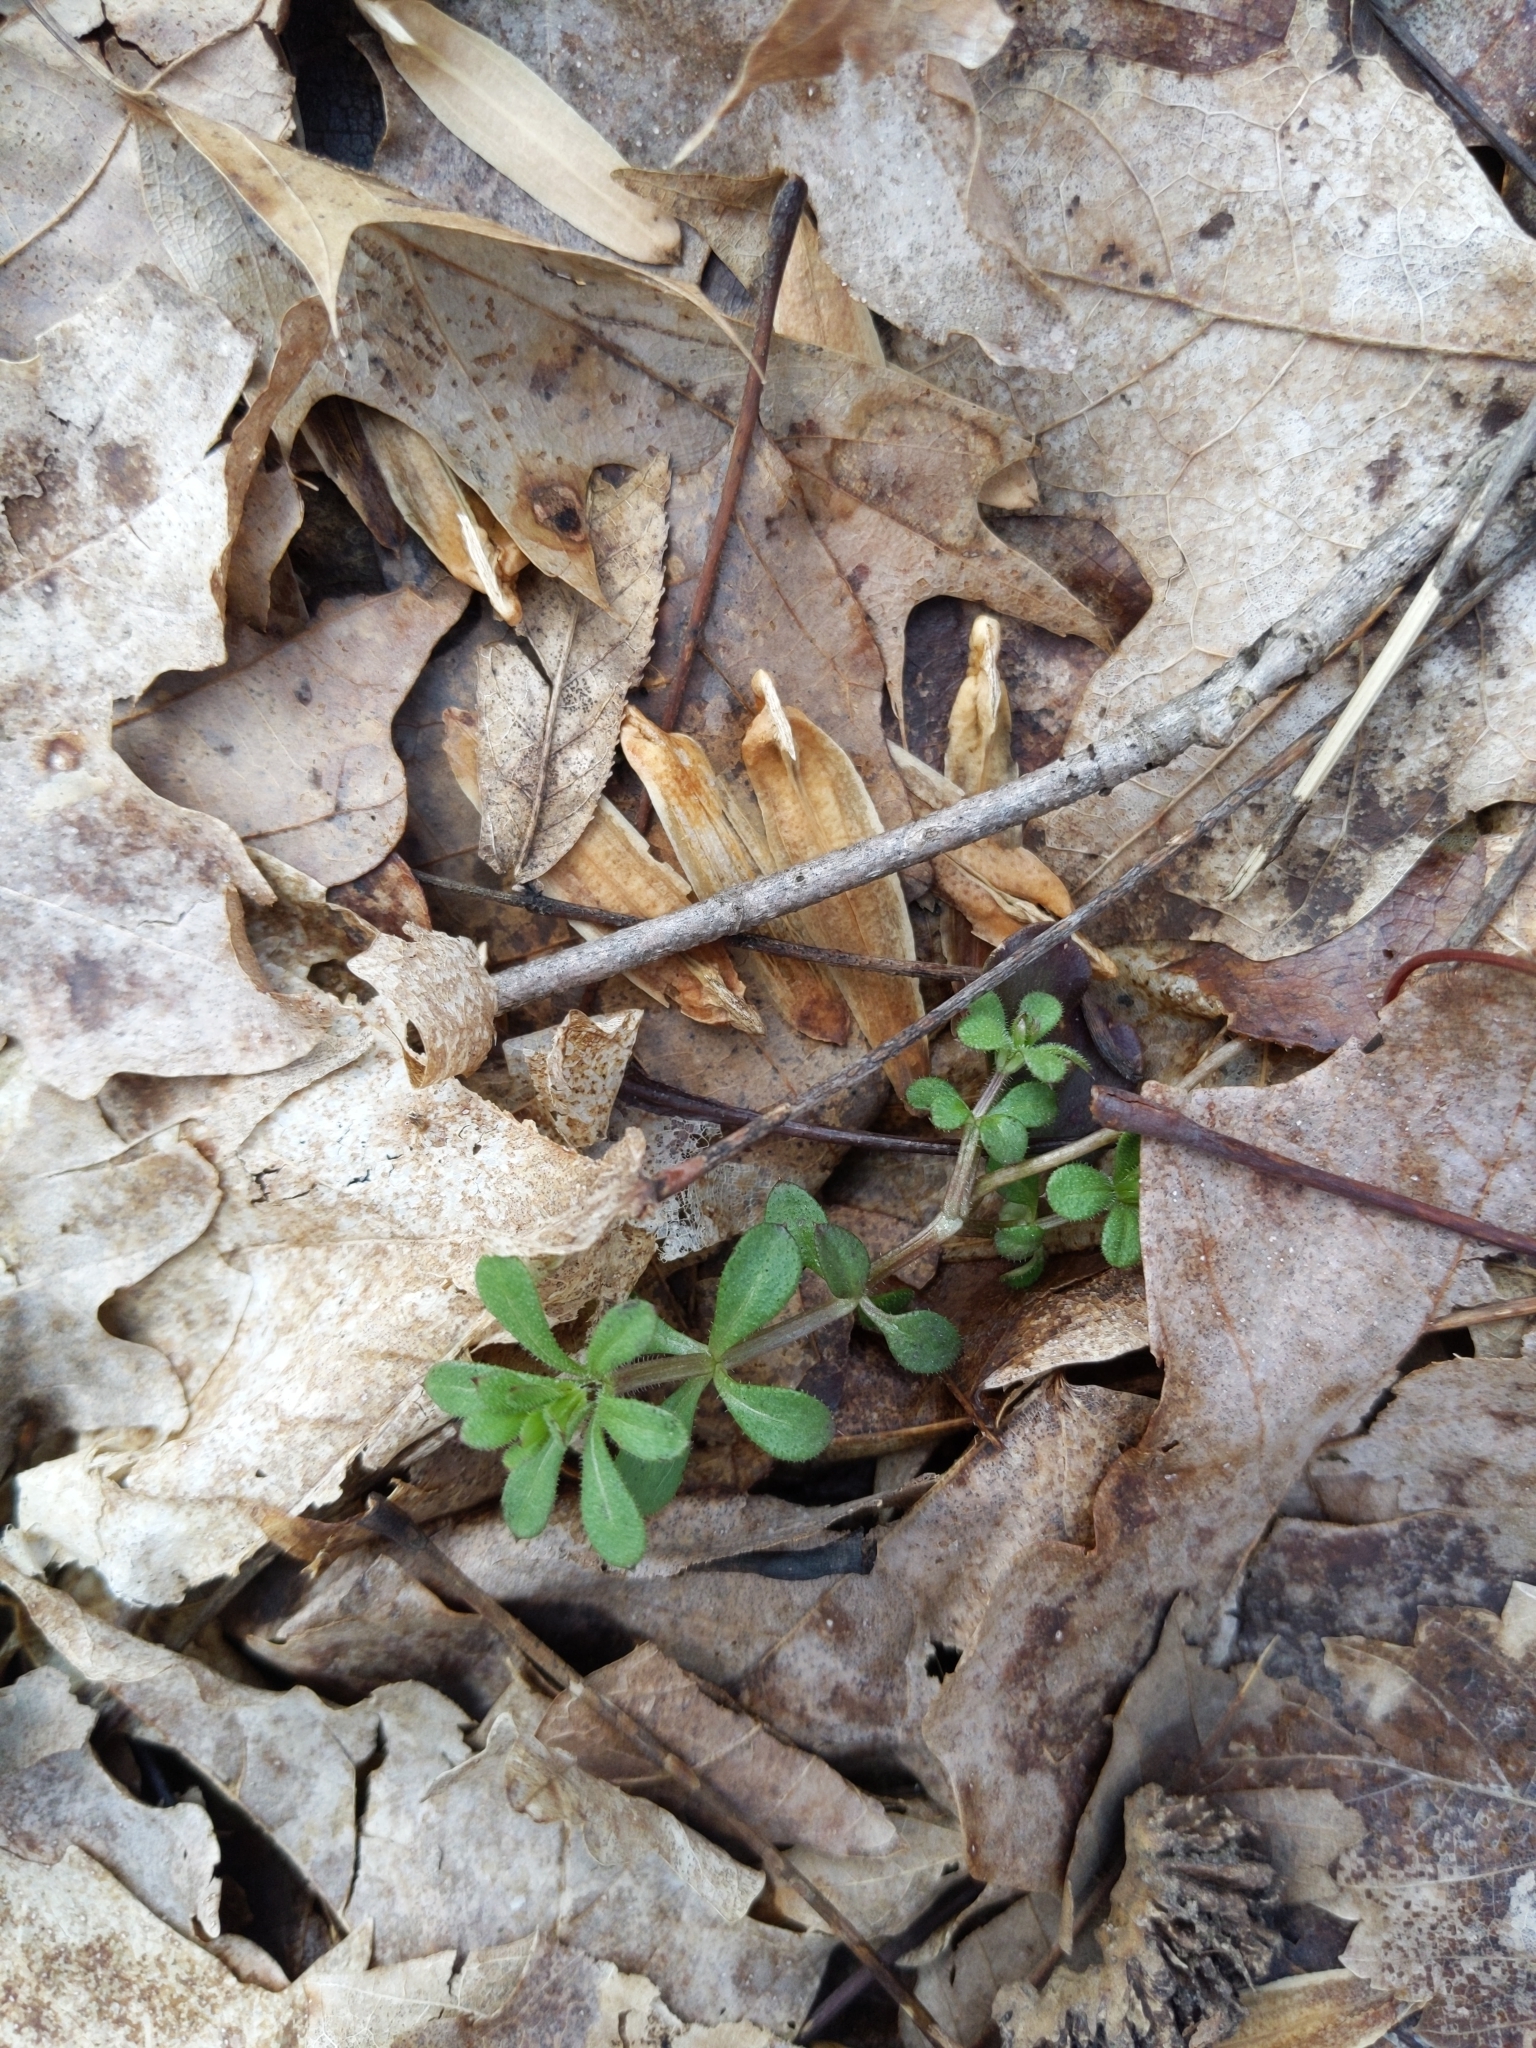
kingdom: Plantae
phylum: Tracheophyta
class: Magnoliopsida
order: Gentianales
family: Rubiaceae
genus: Galium
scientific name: Galium aparine
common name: Cleavers
